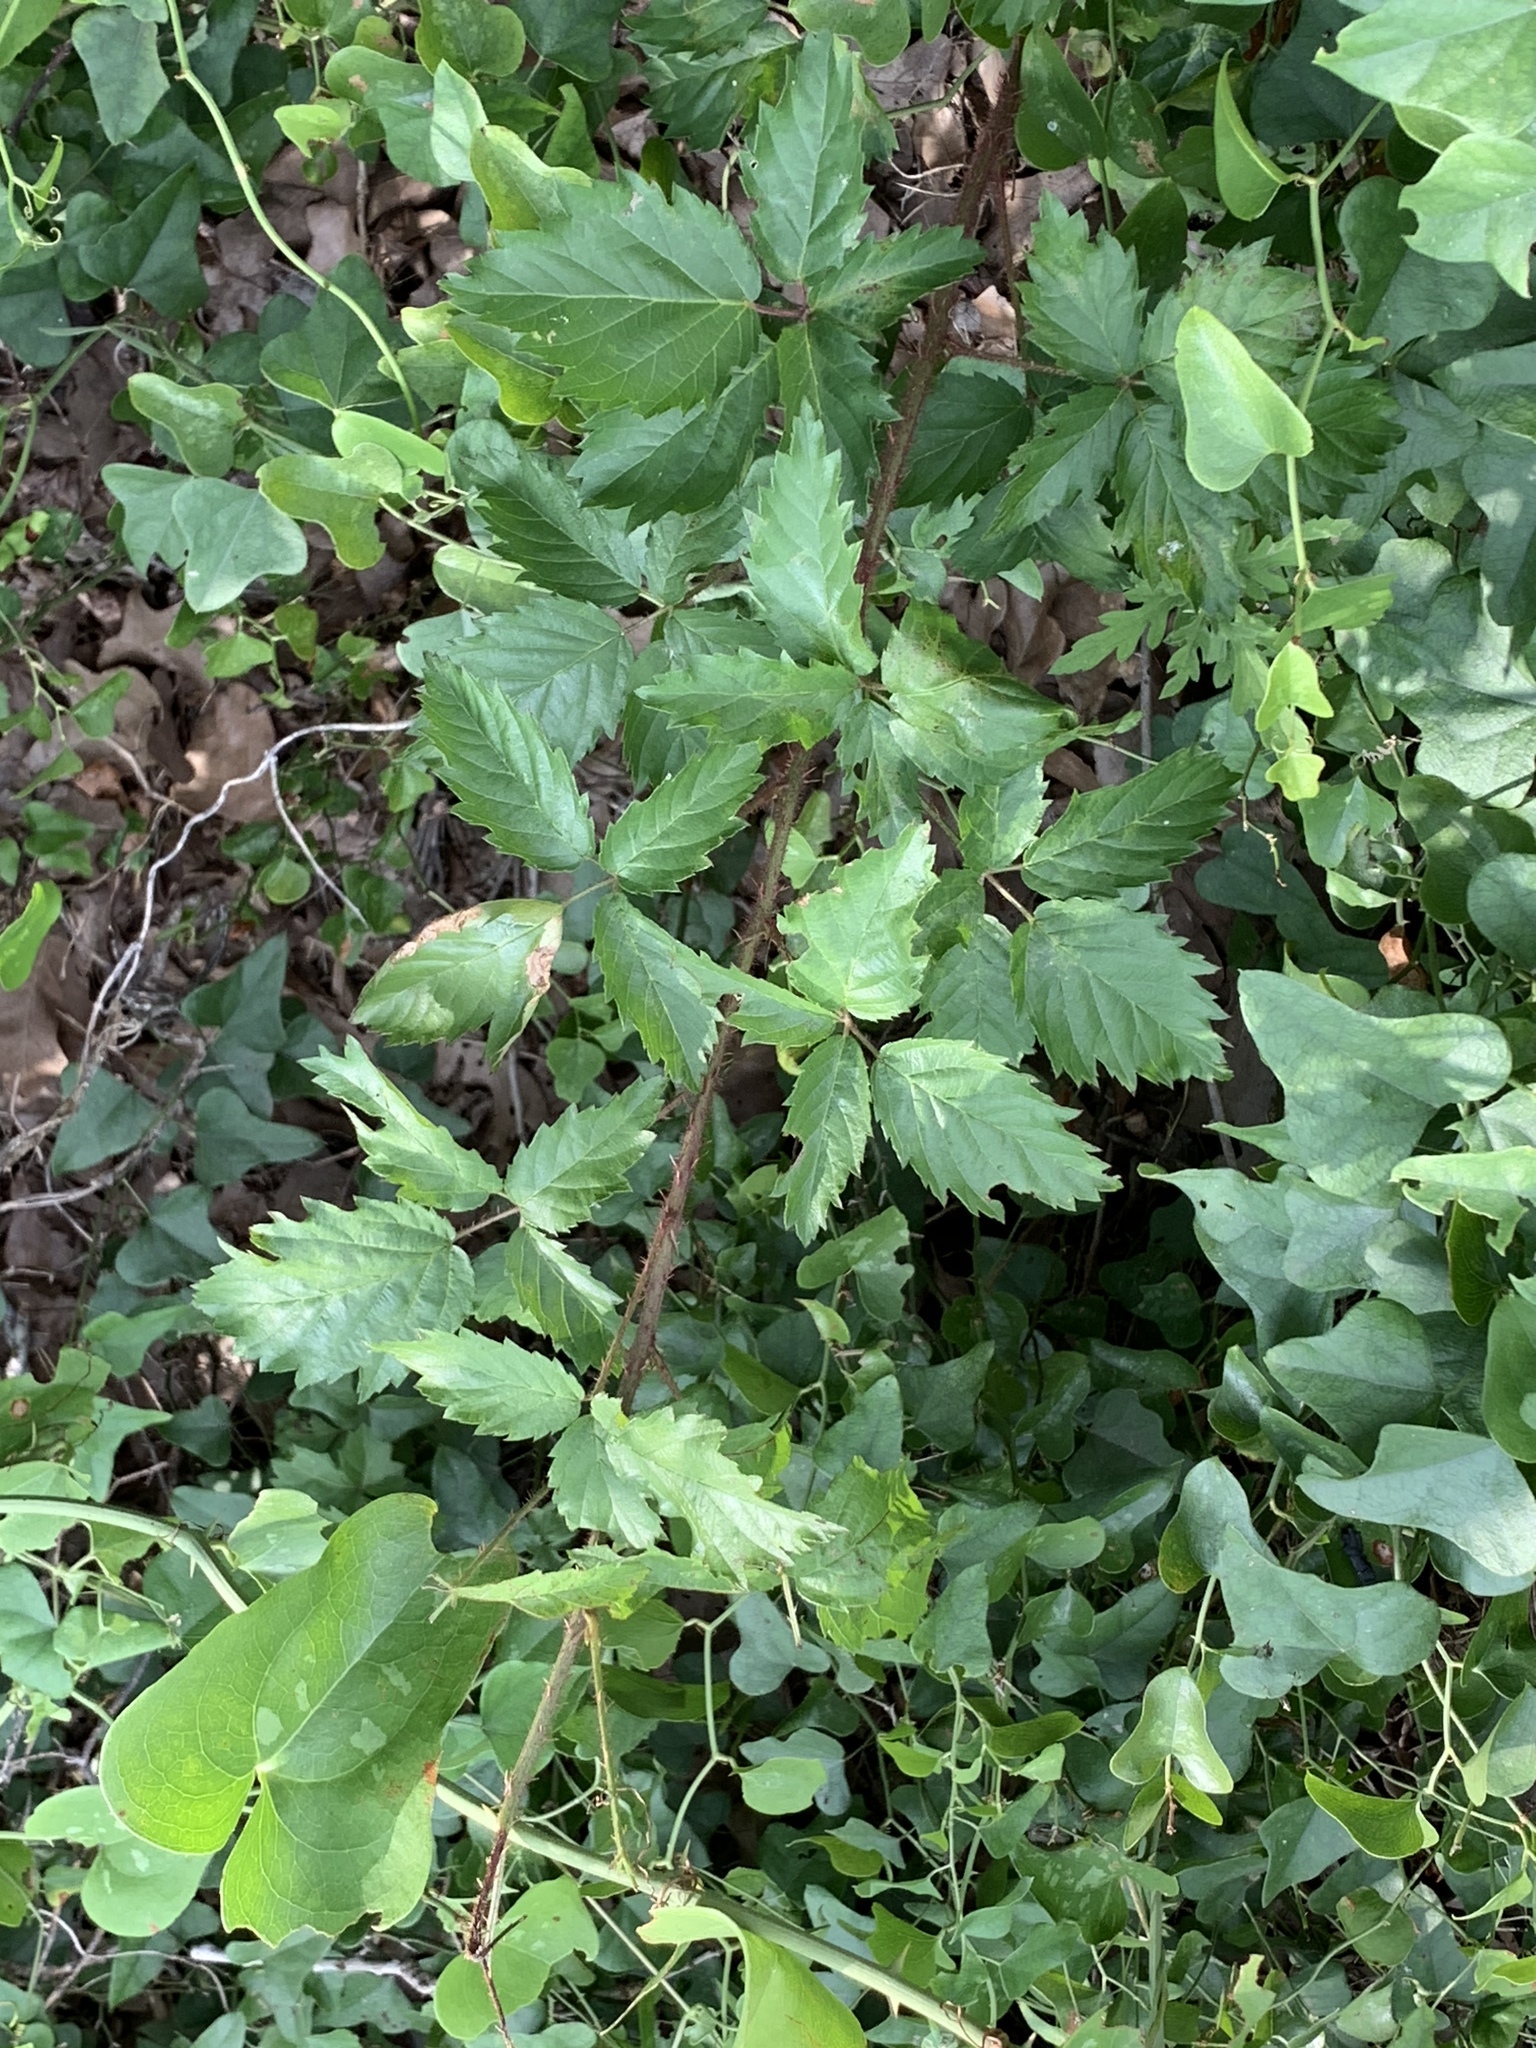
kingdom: Plantae
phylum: Tracheophyta
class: Magnoliopsida
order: Rosales
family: Rosaceae
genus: Rubus
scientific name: Rubus trivialis
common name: Southern dewberry
